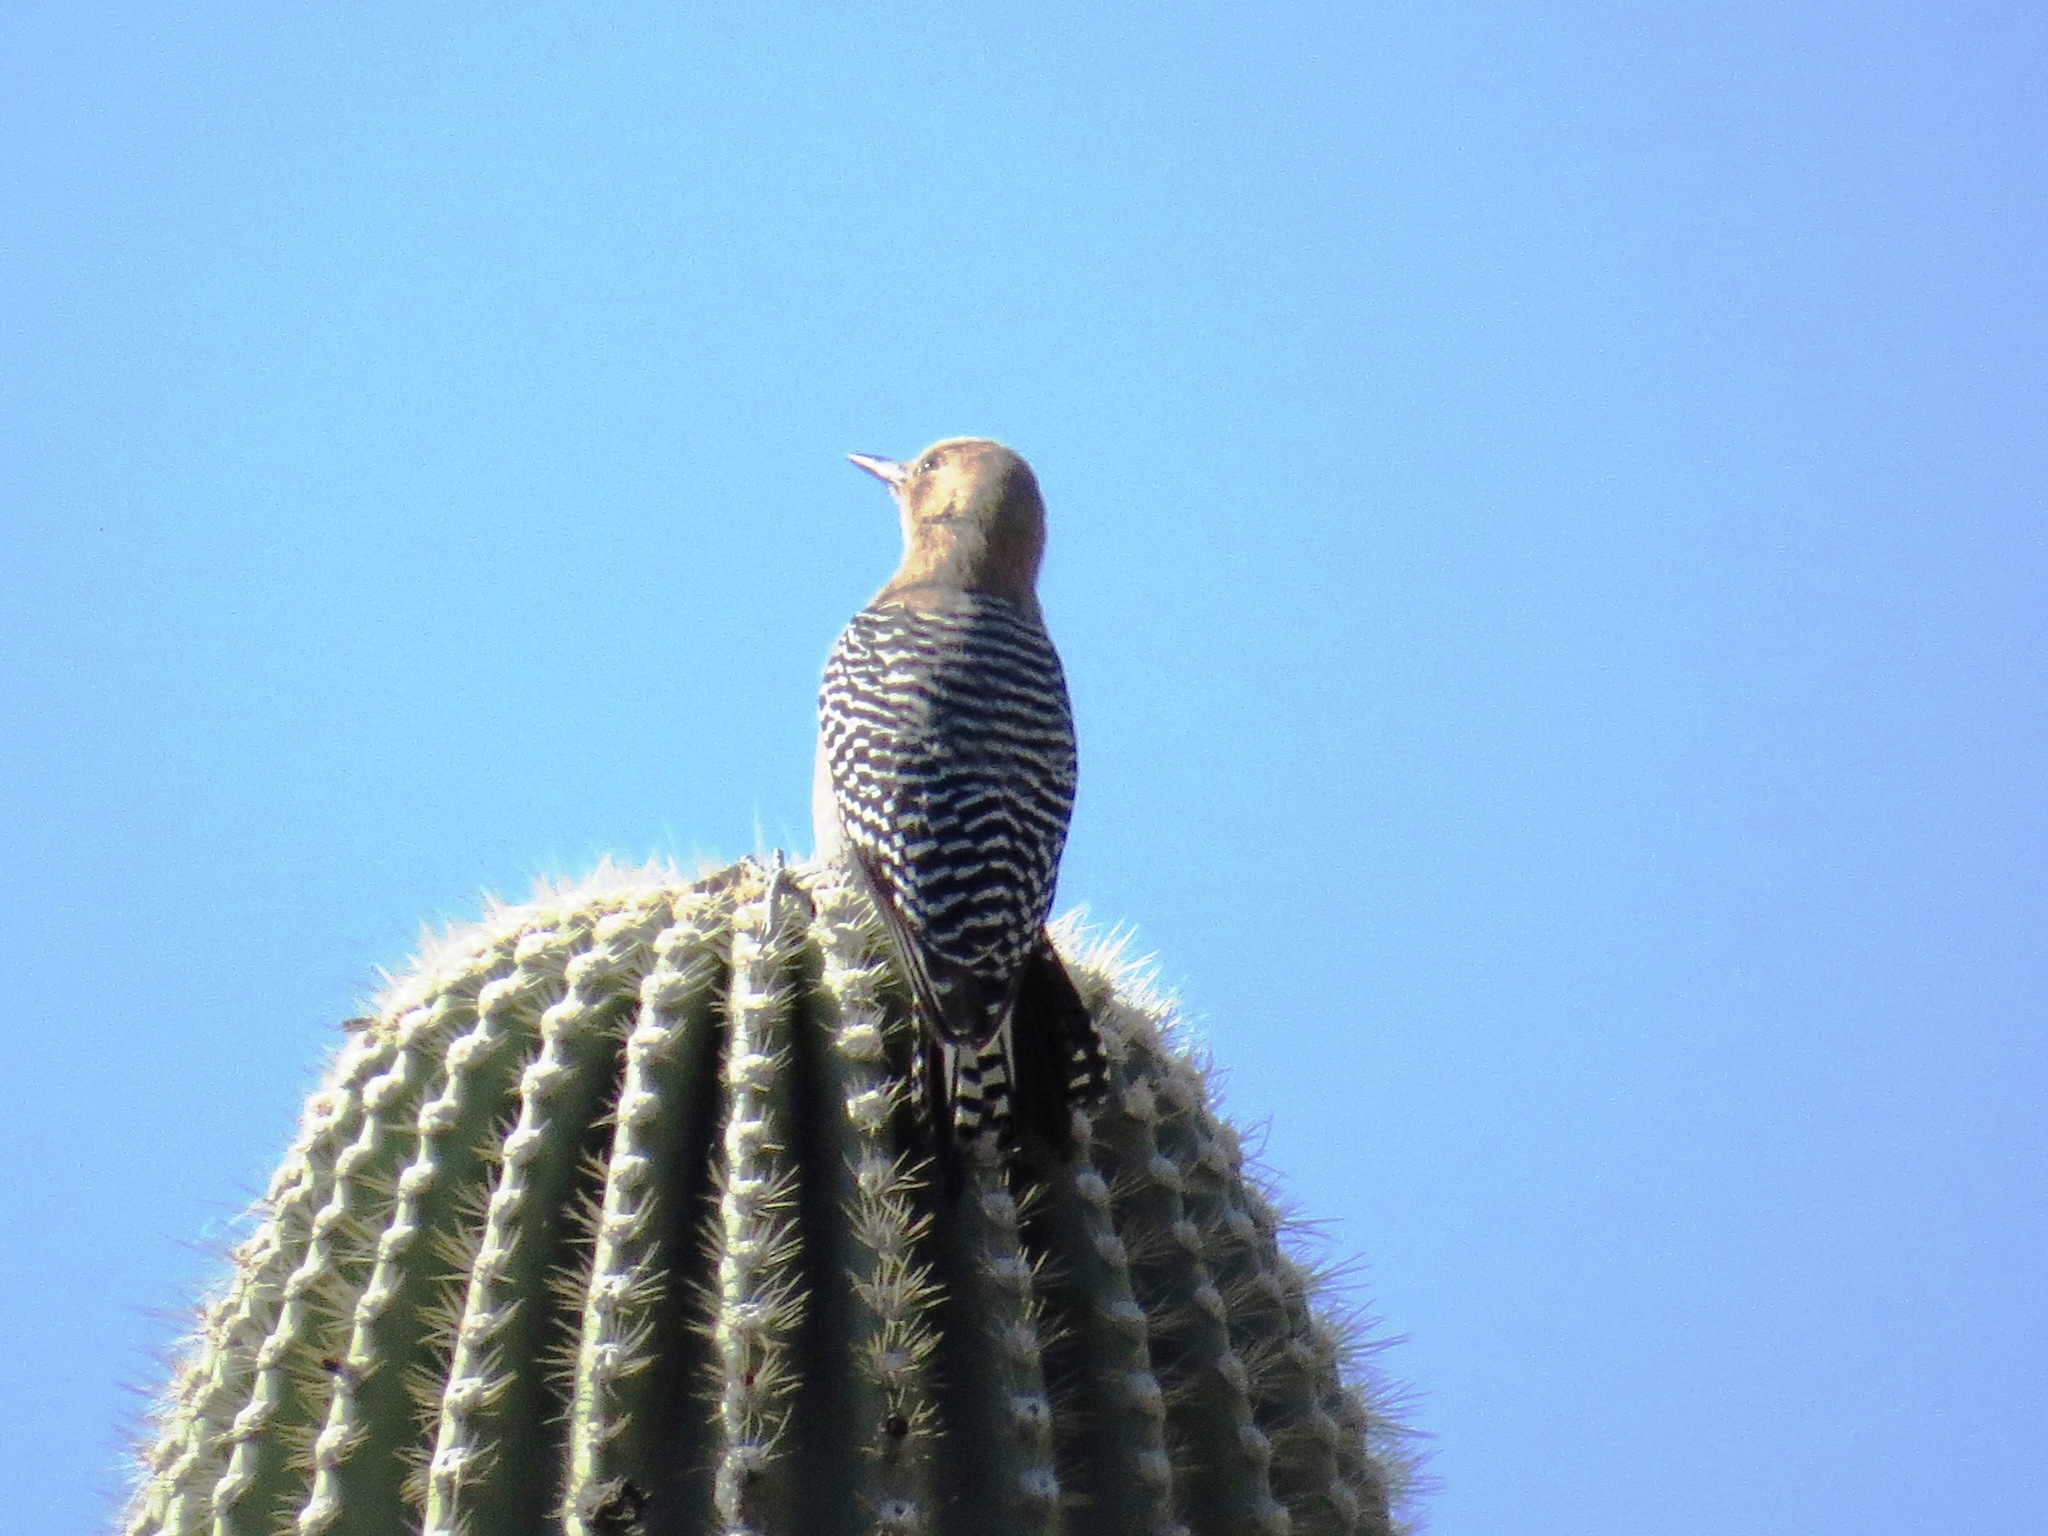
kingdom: Animalia
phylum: Chordata
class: Aves
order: Piciformes
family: Picidae
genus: Melanerpes
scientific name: Melanerpes uropygialis
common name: Gila woodpecker
